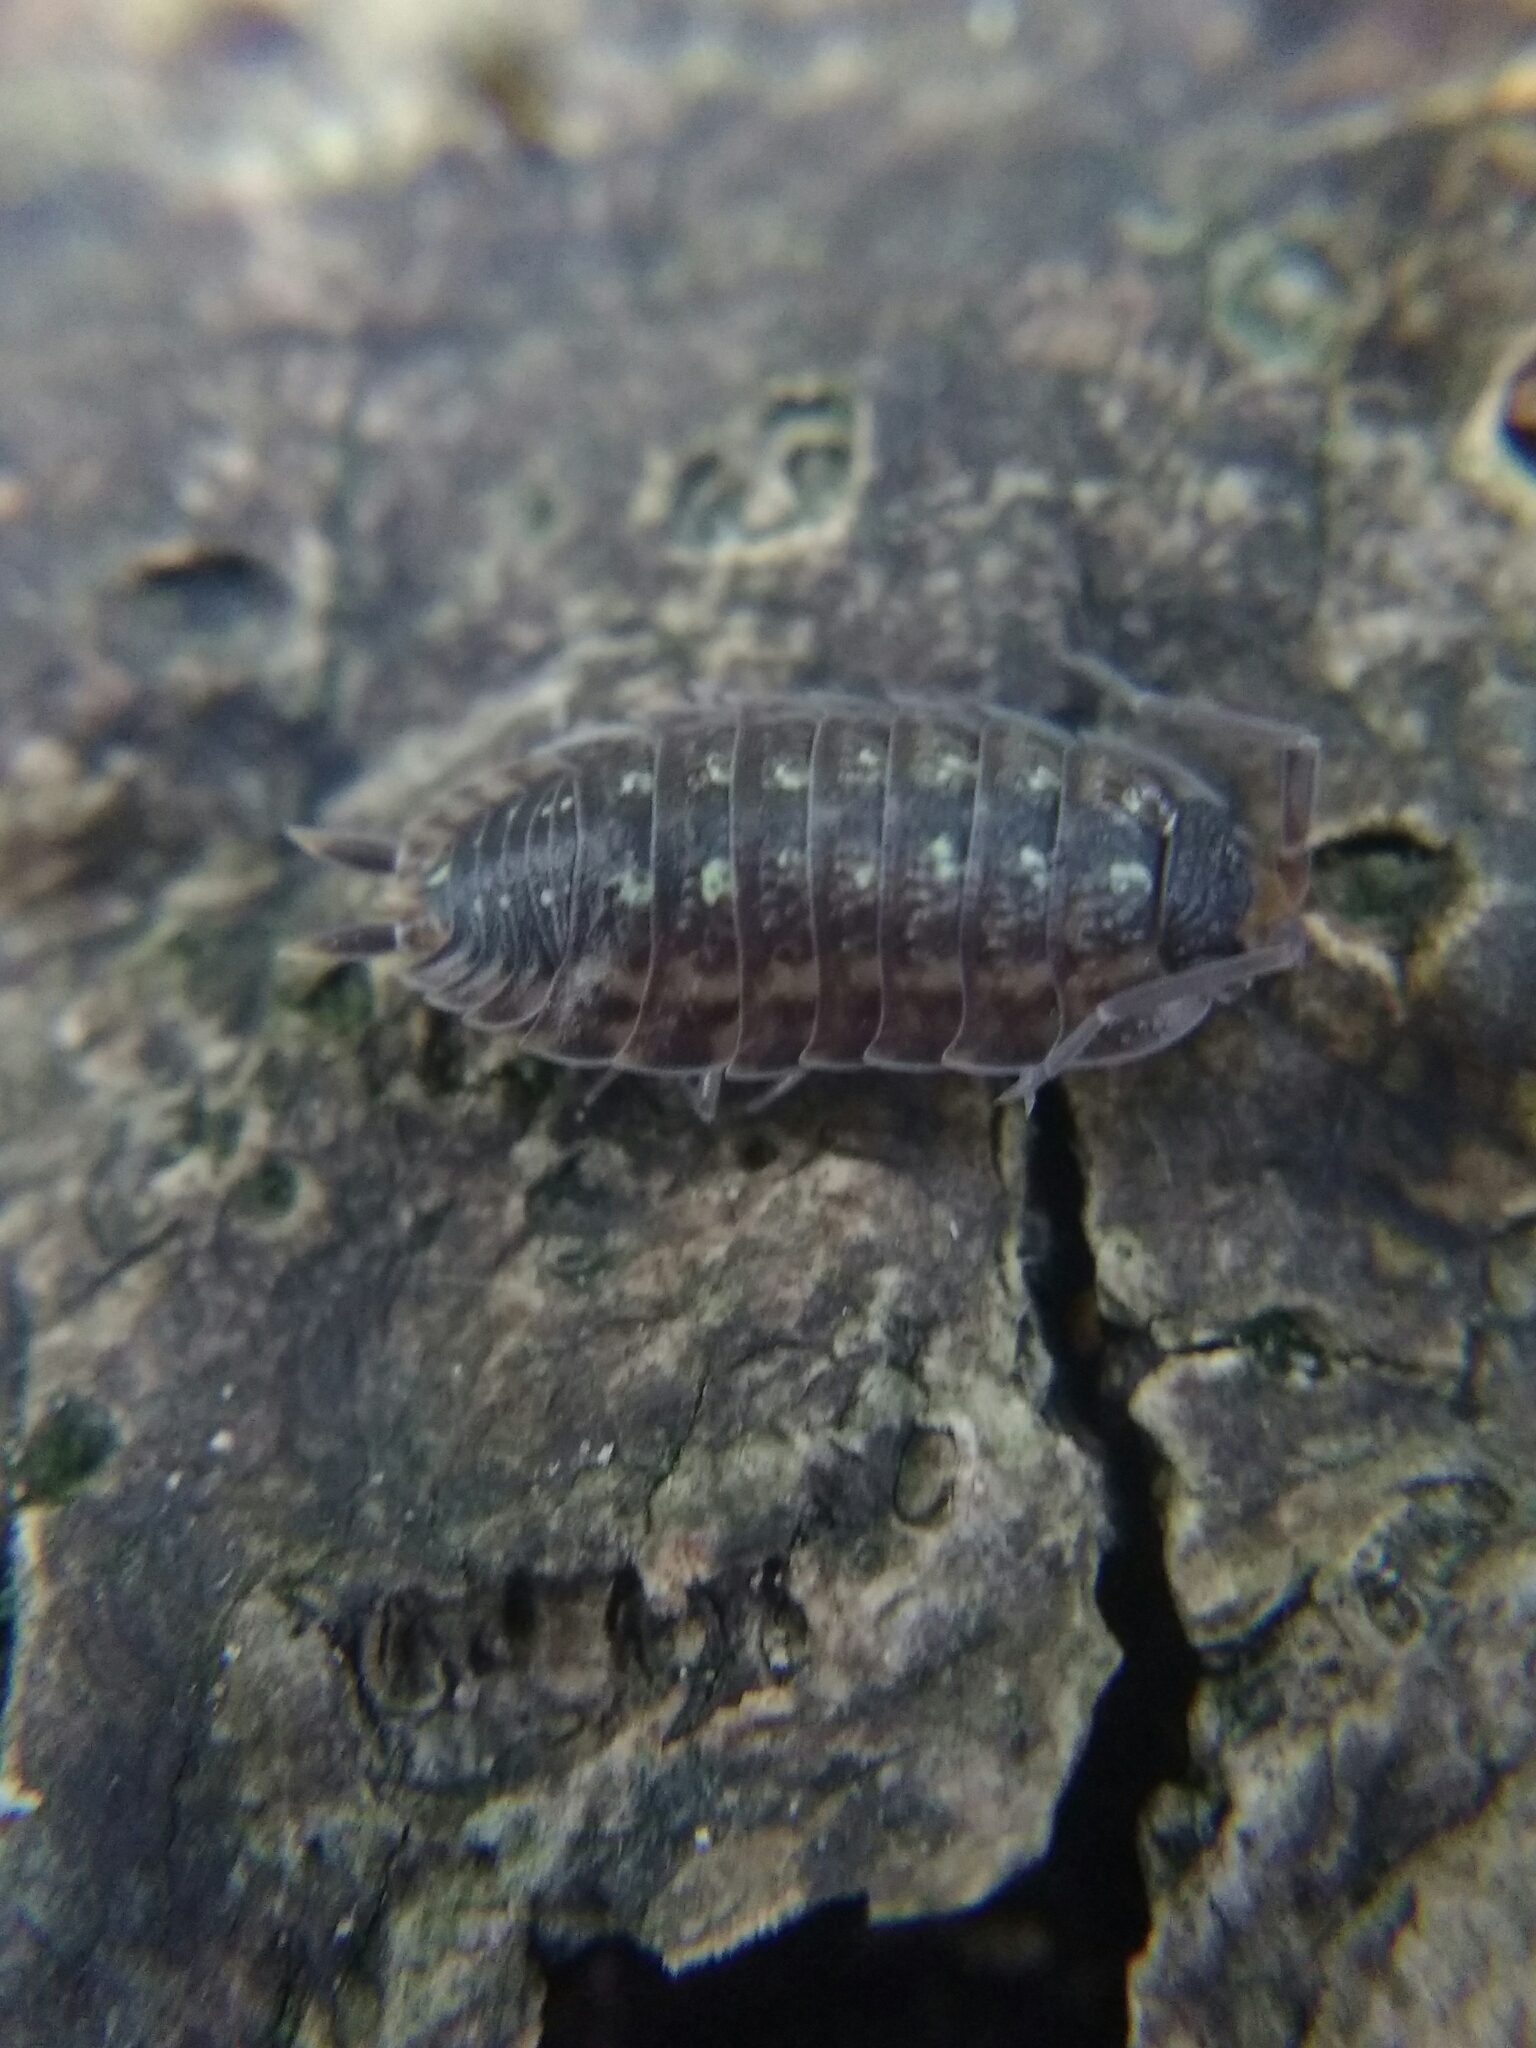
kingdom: Animalia
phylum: Arthropoda
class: Malacostraca
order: Isopoda
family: Porcellionidae
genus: Porcellio
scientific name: Porcellio spinicornis
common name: Painted woodlouse
